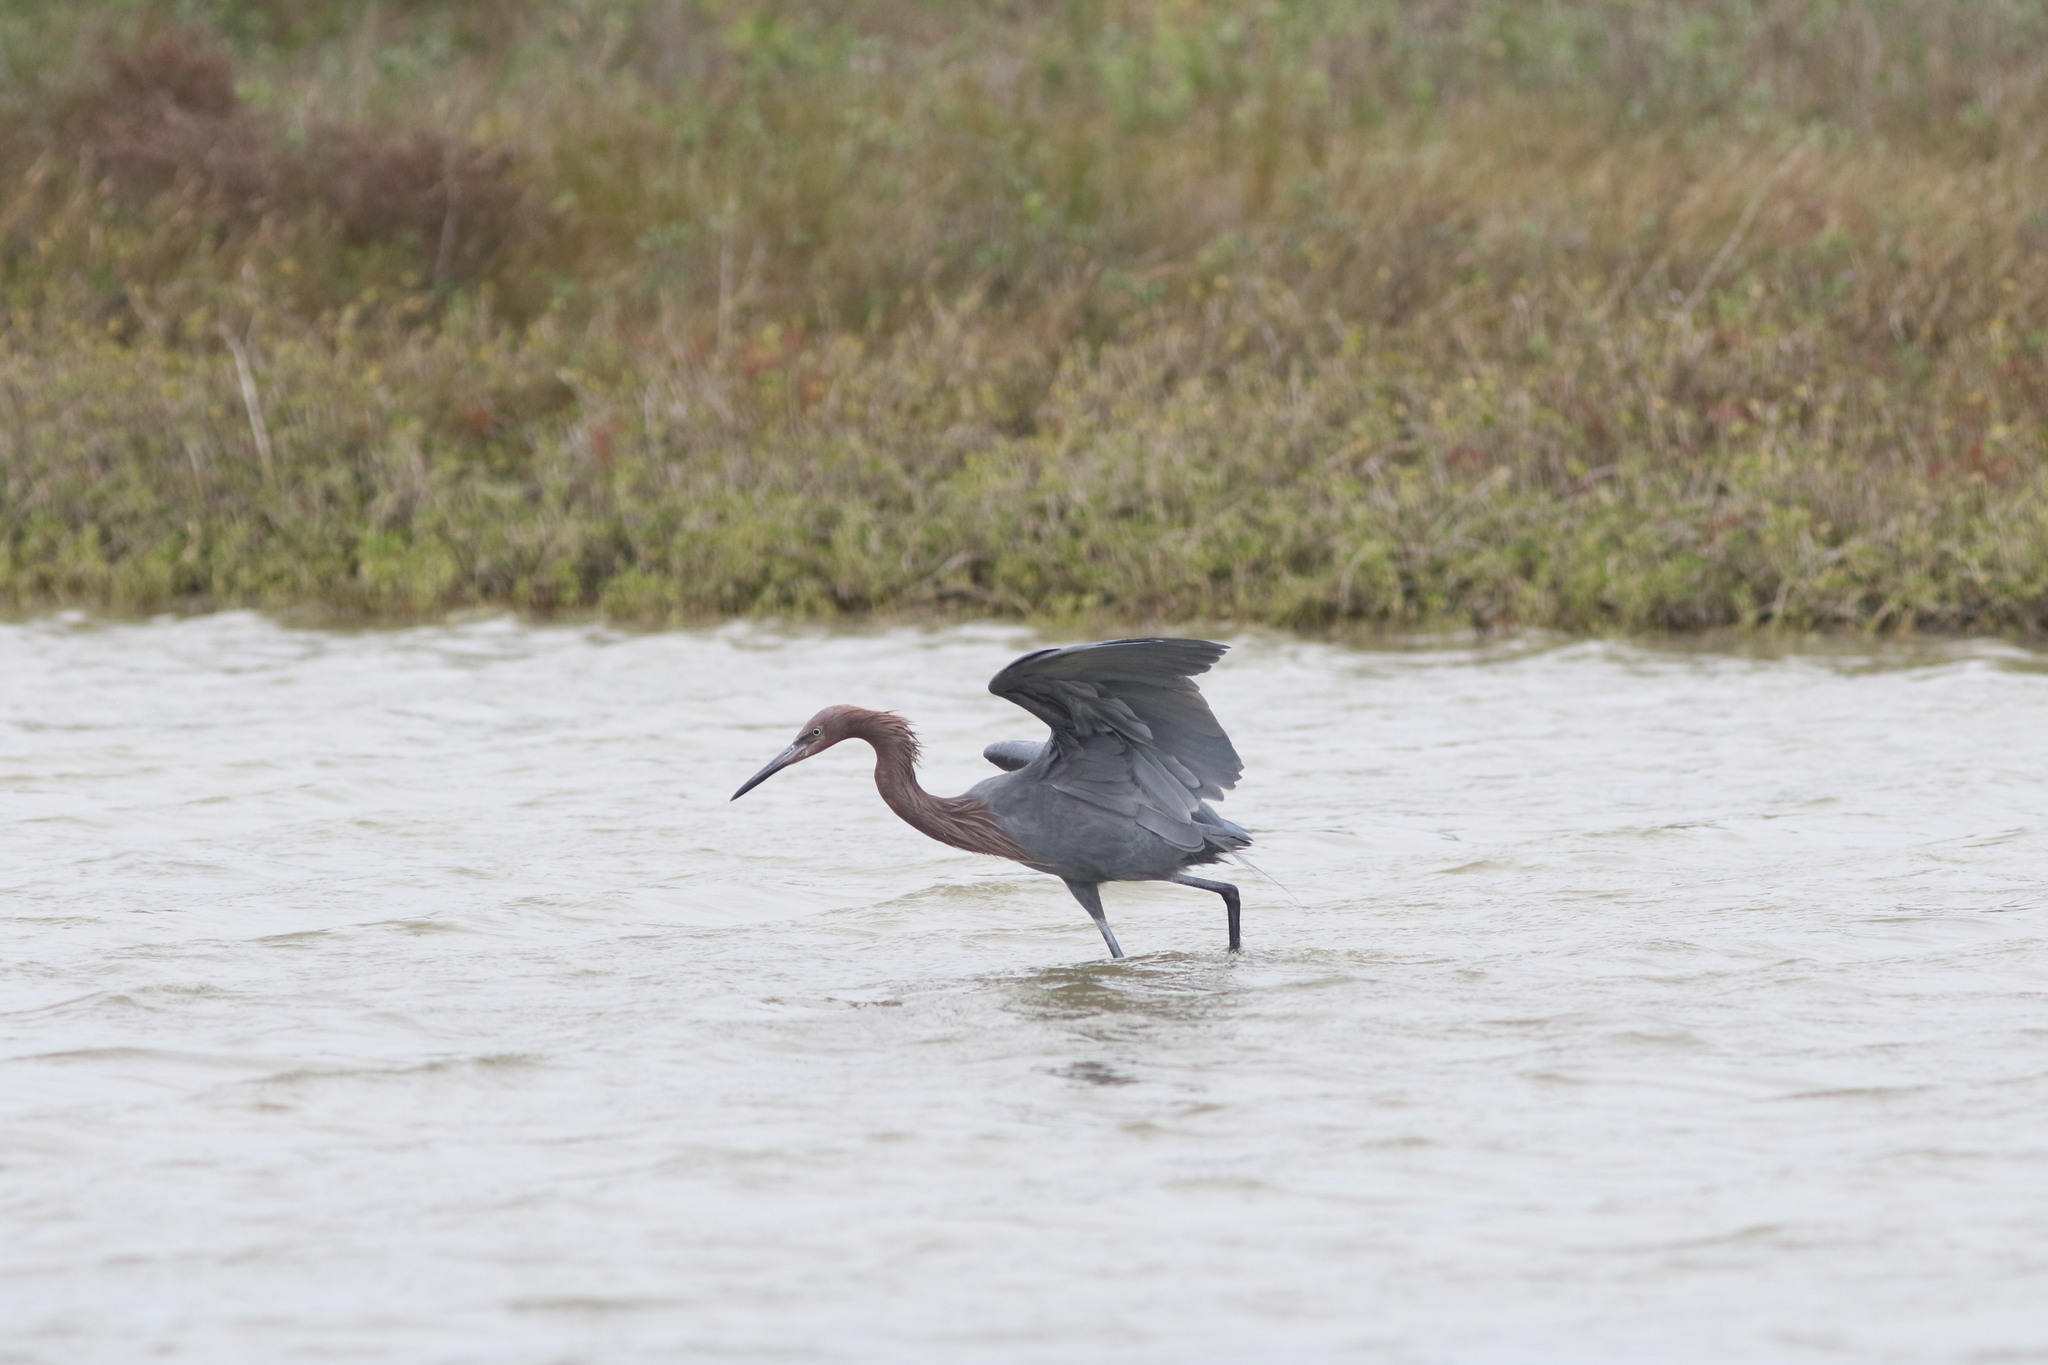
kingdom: Animalia
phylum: Chordata
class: Aves
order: Pelecaniformes
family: Ardeidae
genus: Egretta
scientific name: Egretta rufescens
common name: Reddish egret
